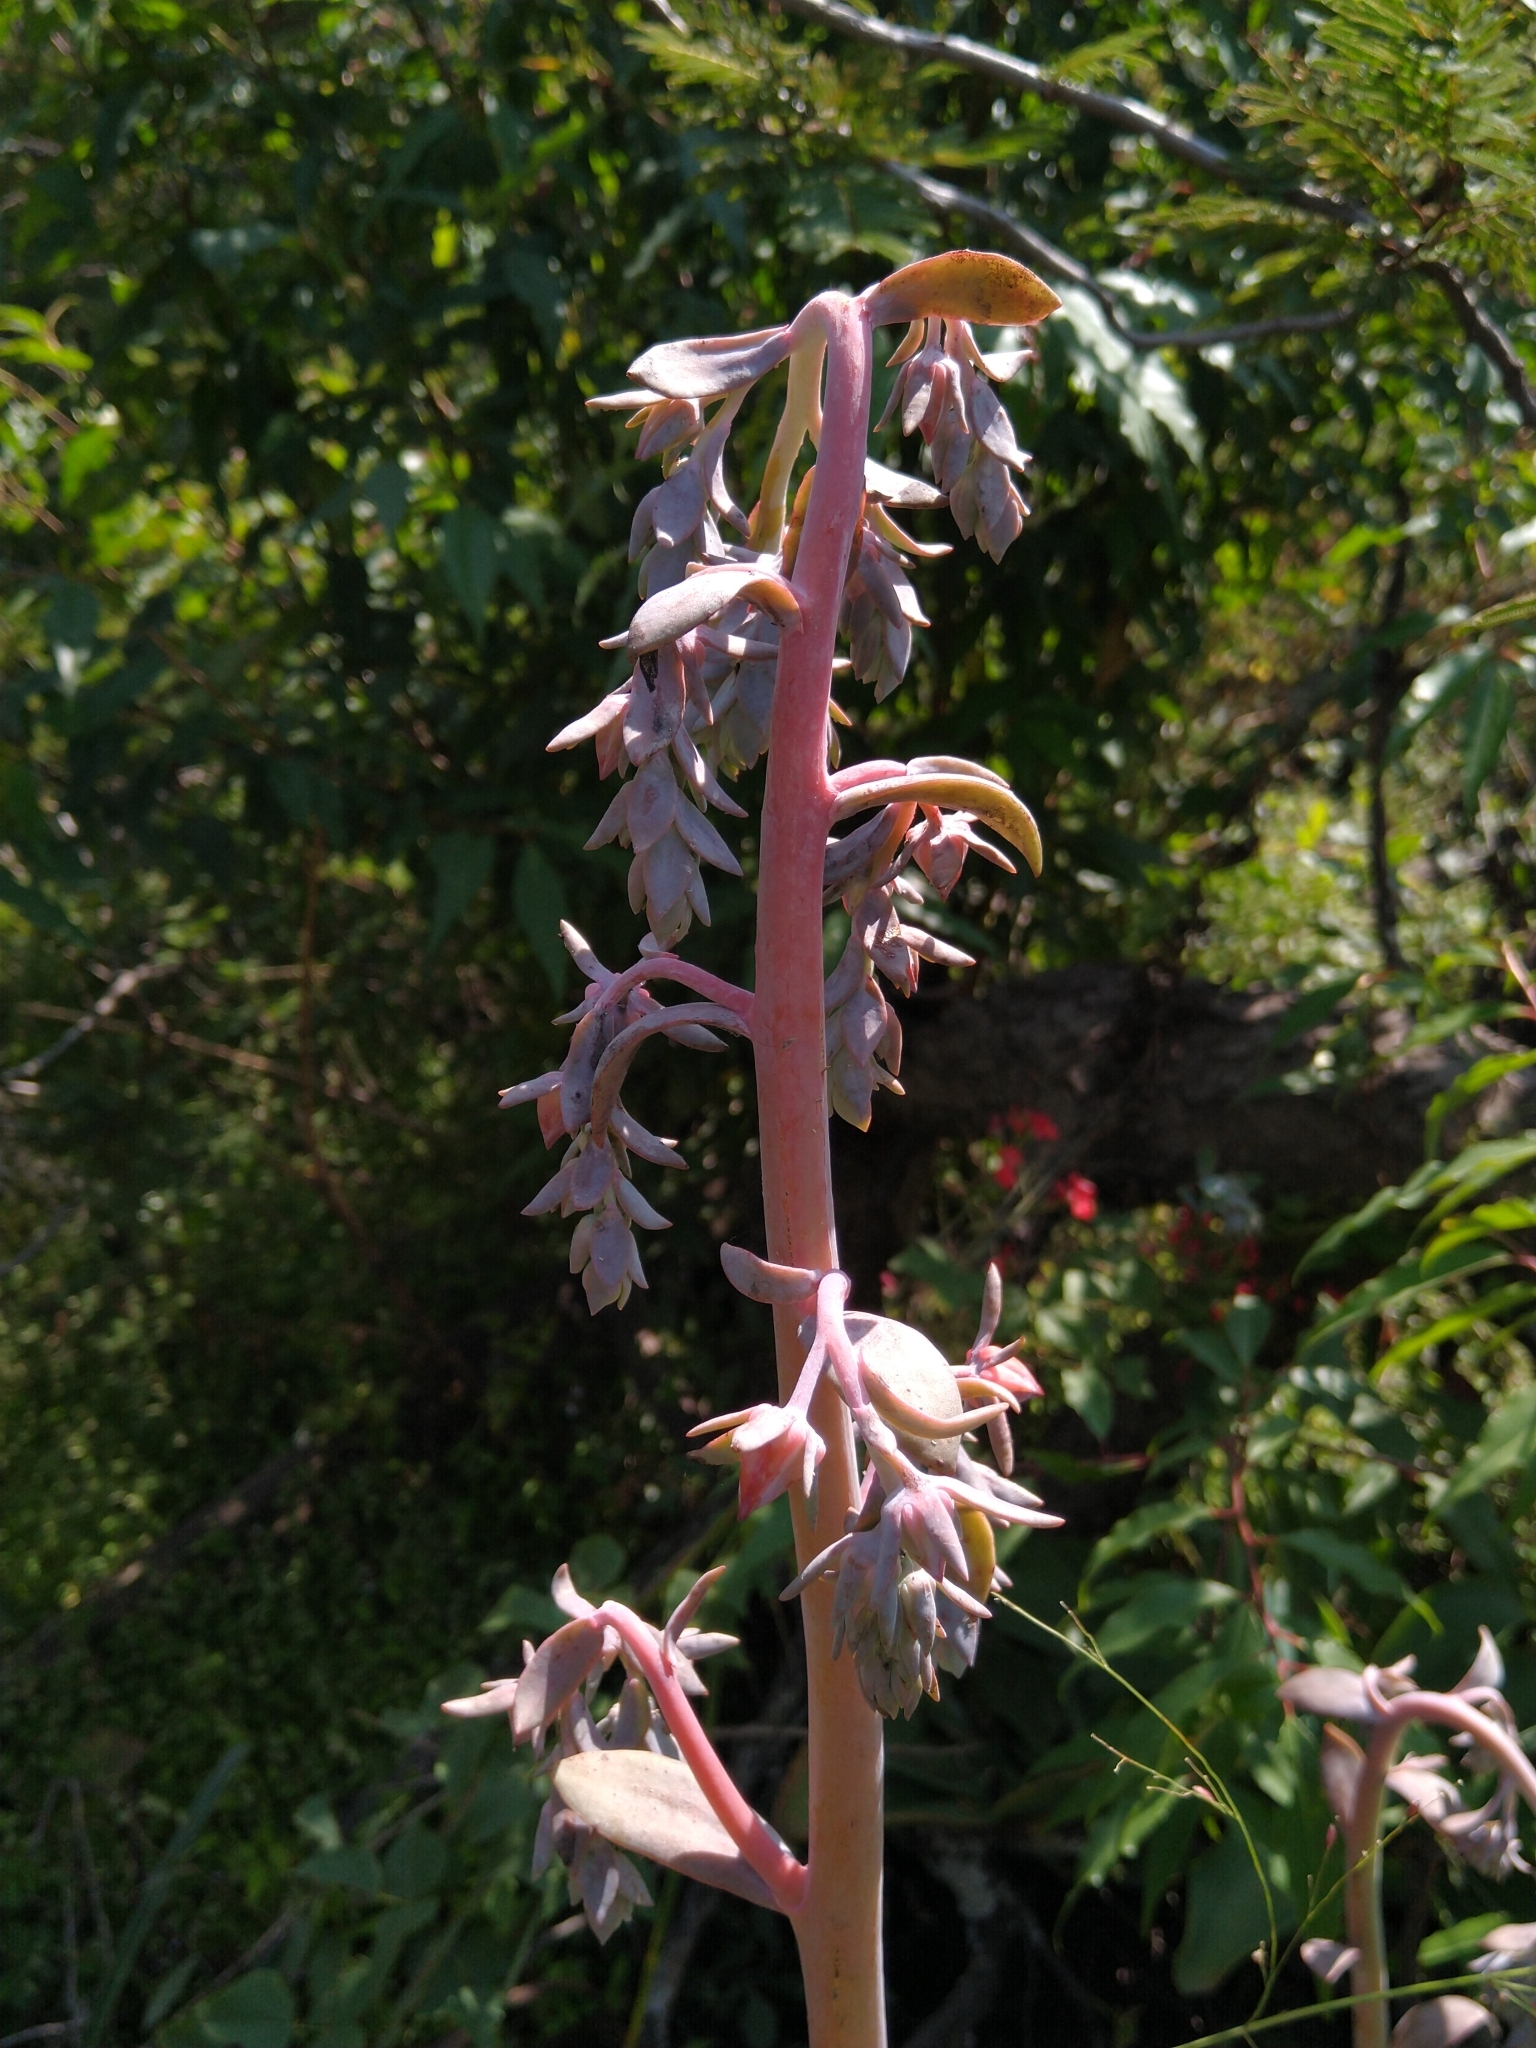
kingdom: Plantae
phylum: Tracheophyta
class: Magnoliopsida
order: Saxifragales
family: Crassulaceae
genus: Echeveria
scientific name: Echeveria gibbiflora
